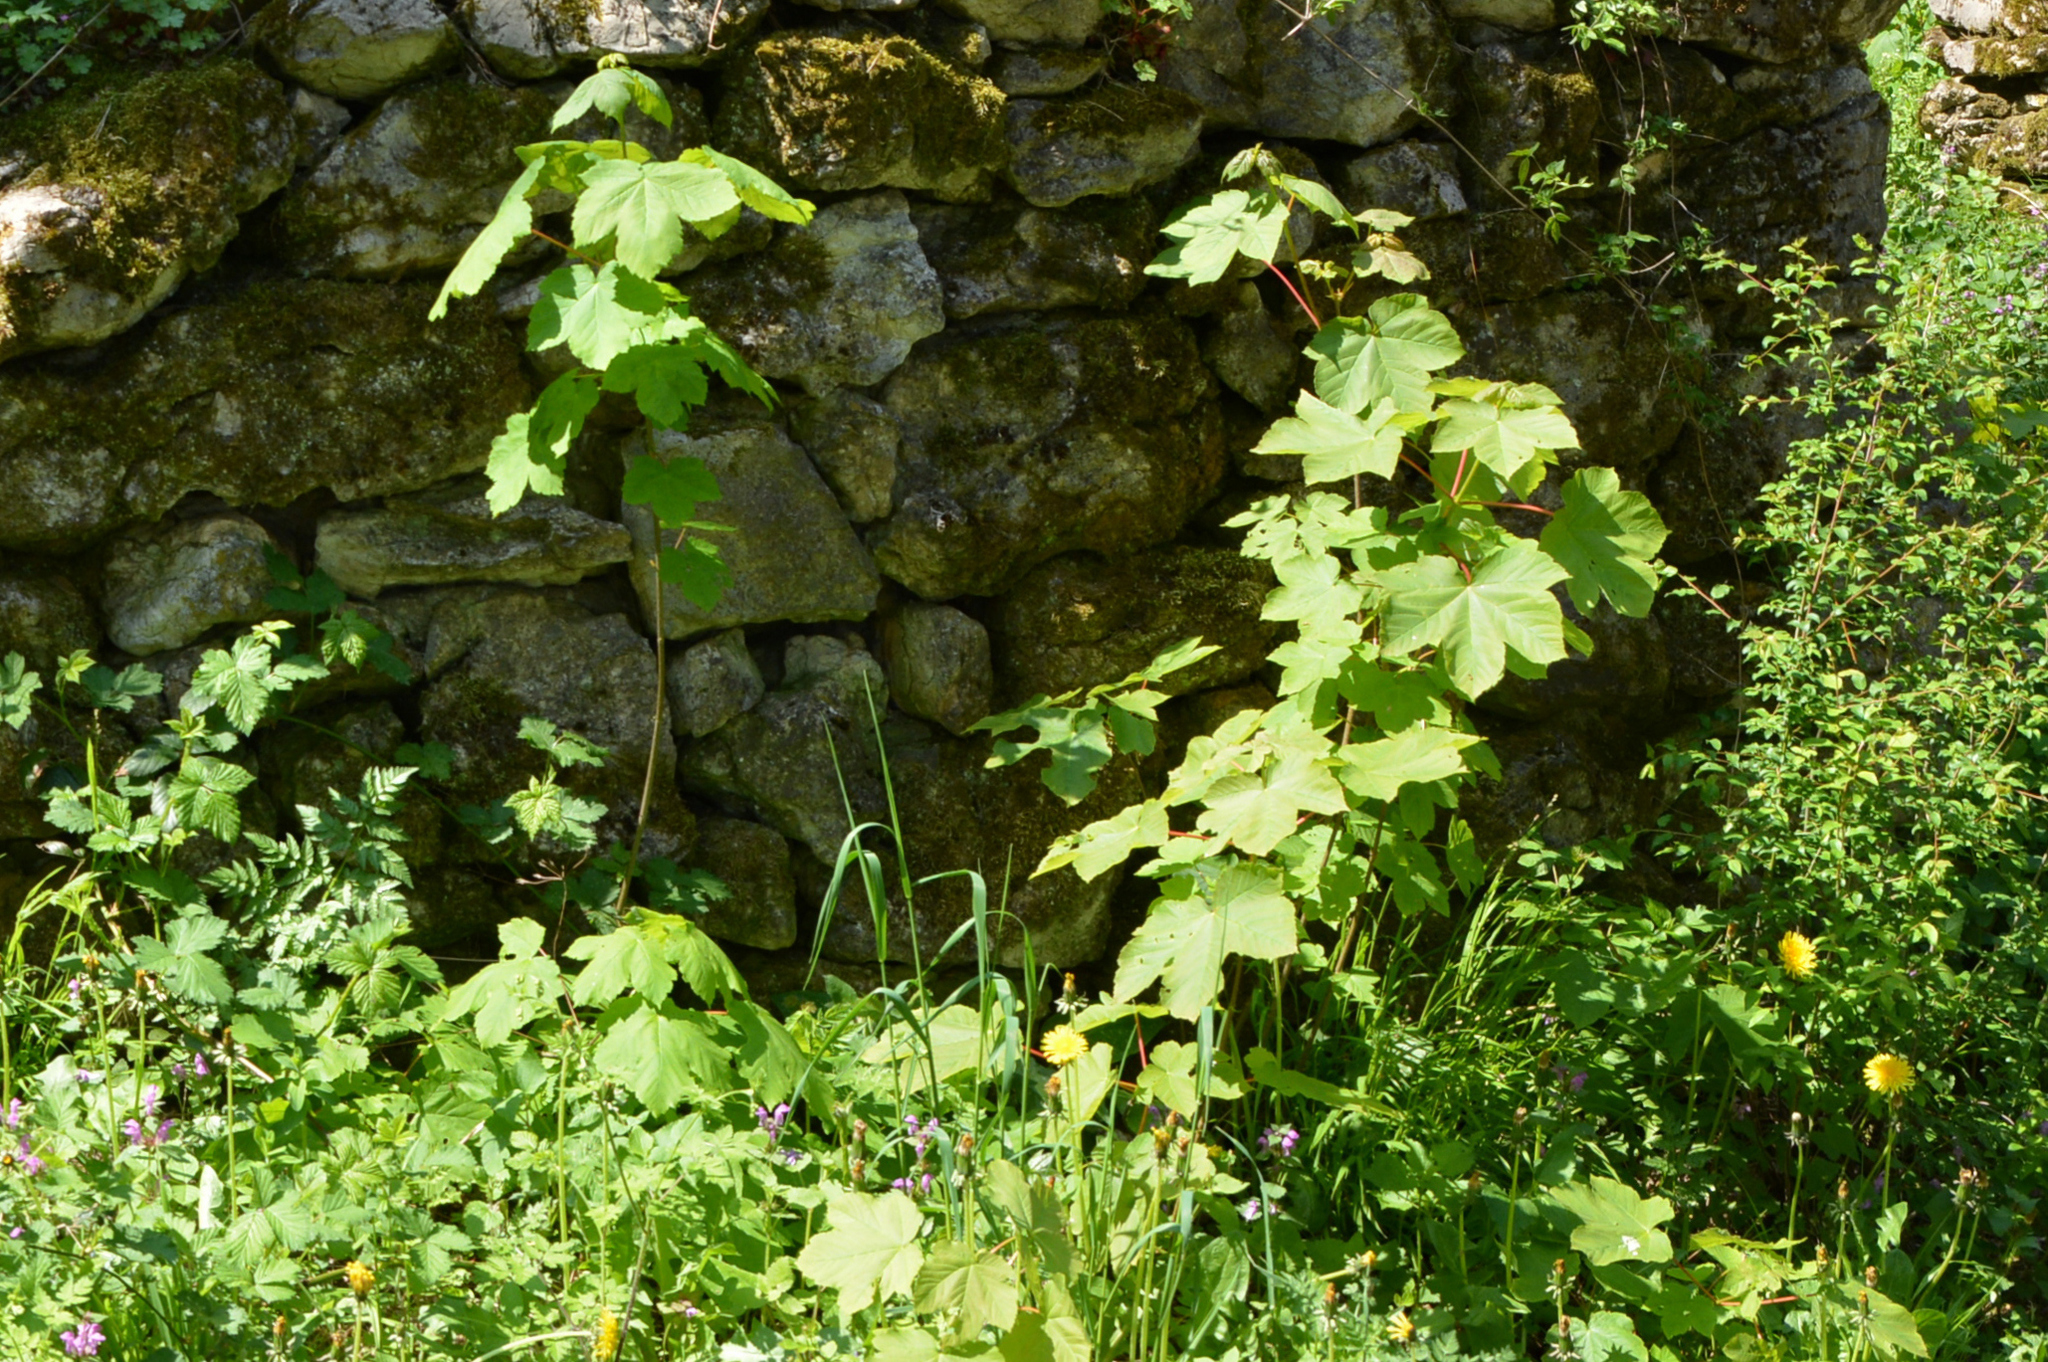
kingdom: Plantae
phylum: Tracheophyta
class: Magnoliopsida
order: Sapindales
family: Sapindaceae
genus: Acer
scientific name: Acer pseudoplatanus
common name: Sycamore
